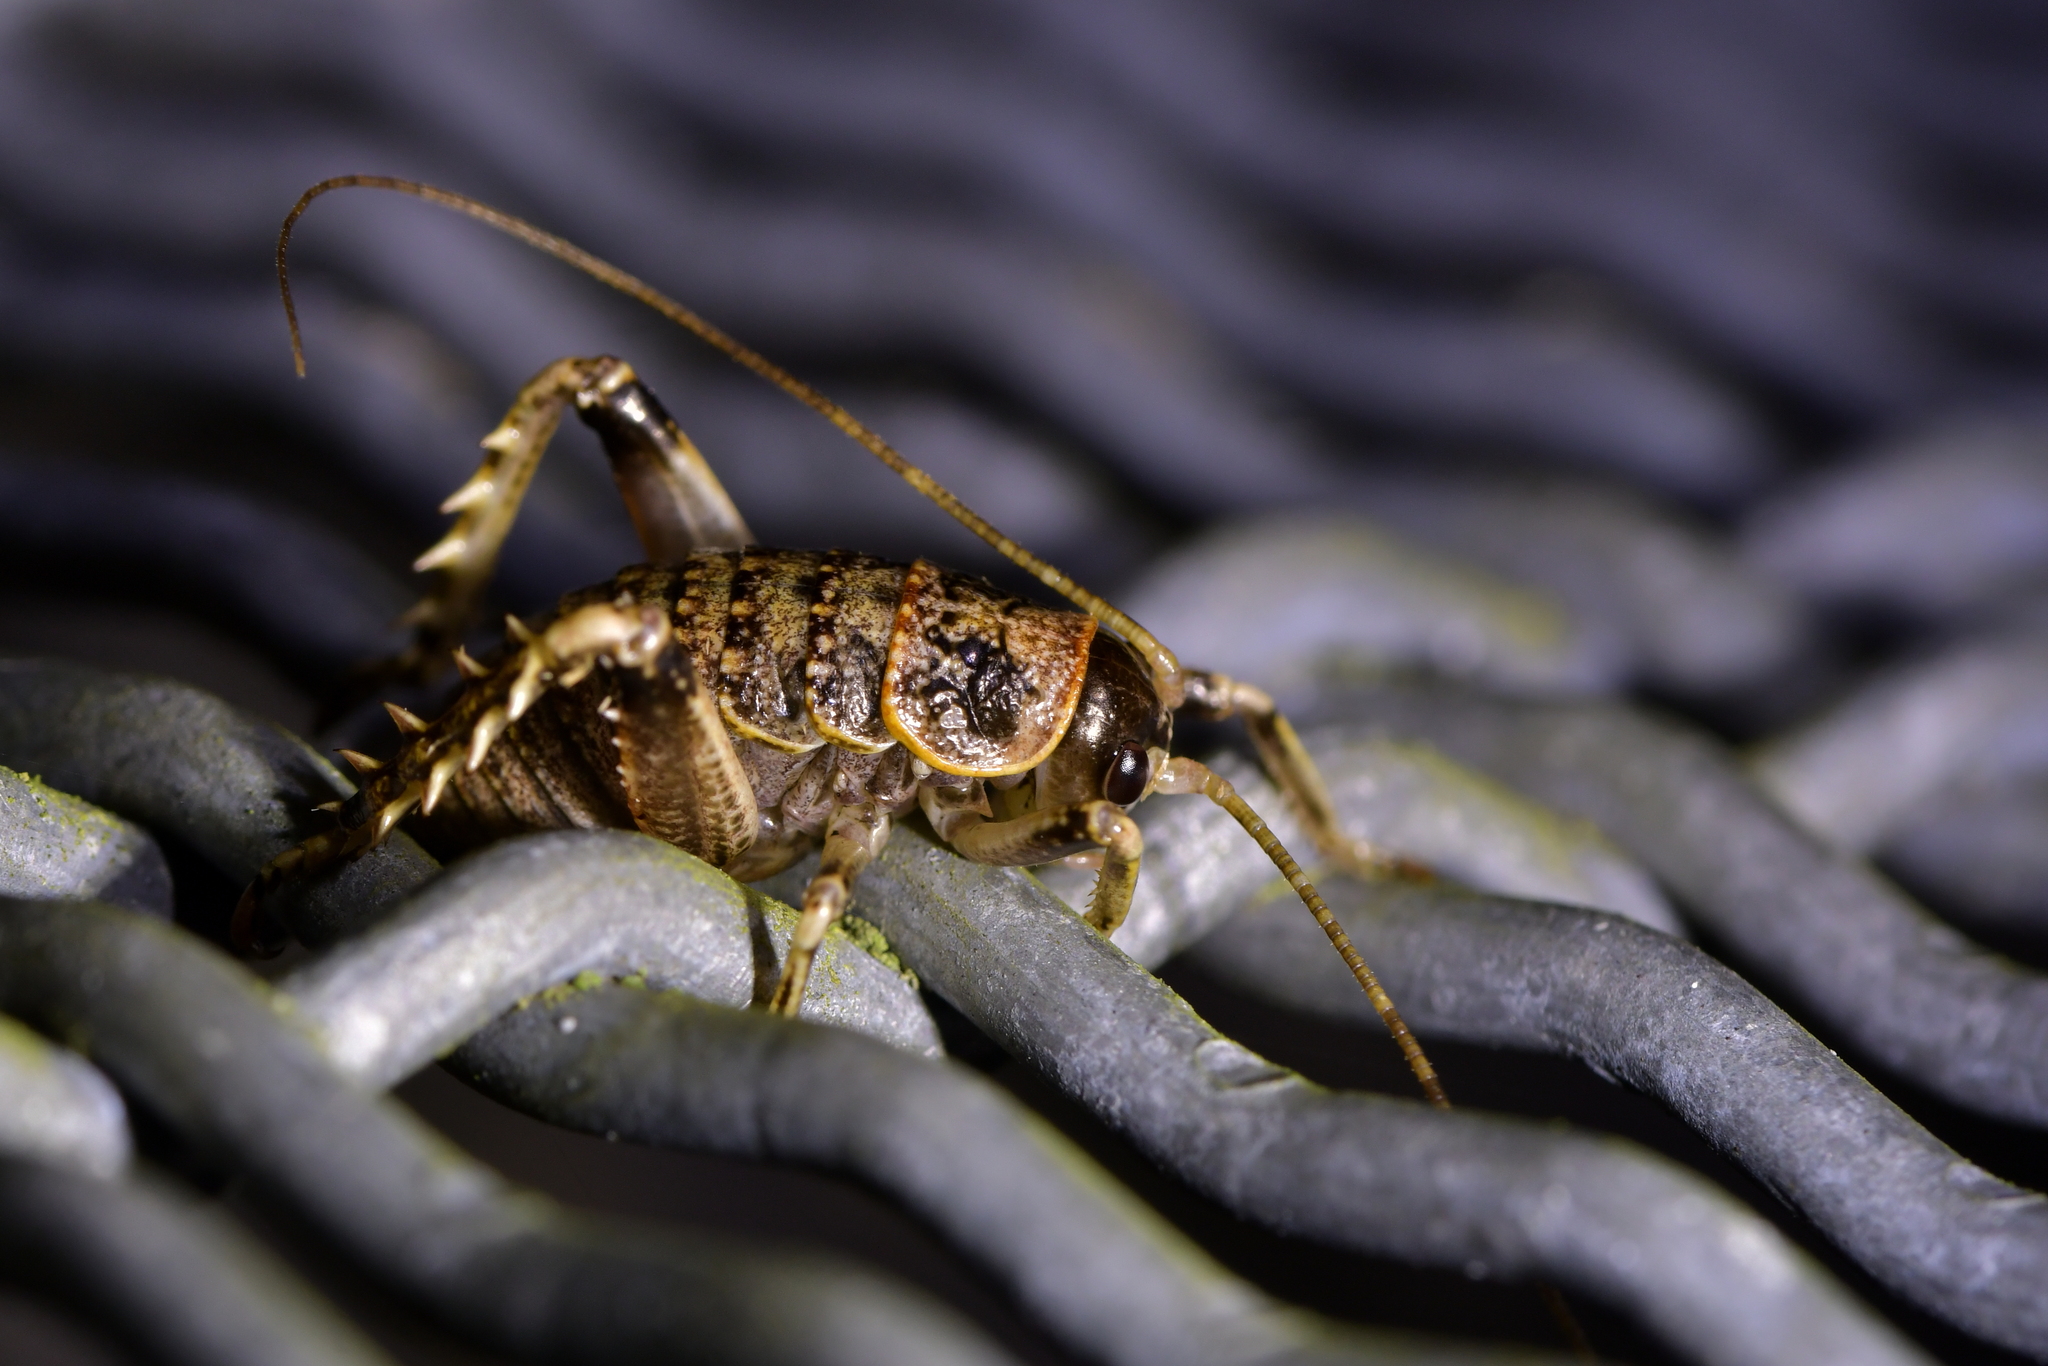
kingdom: Animalia
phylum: Arthropoda
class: Insecta
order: Orthoptera
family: Anostostomatidae
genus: Deinacrida
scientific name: Deinacrida rugosa
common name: Stephens island weta
